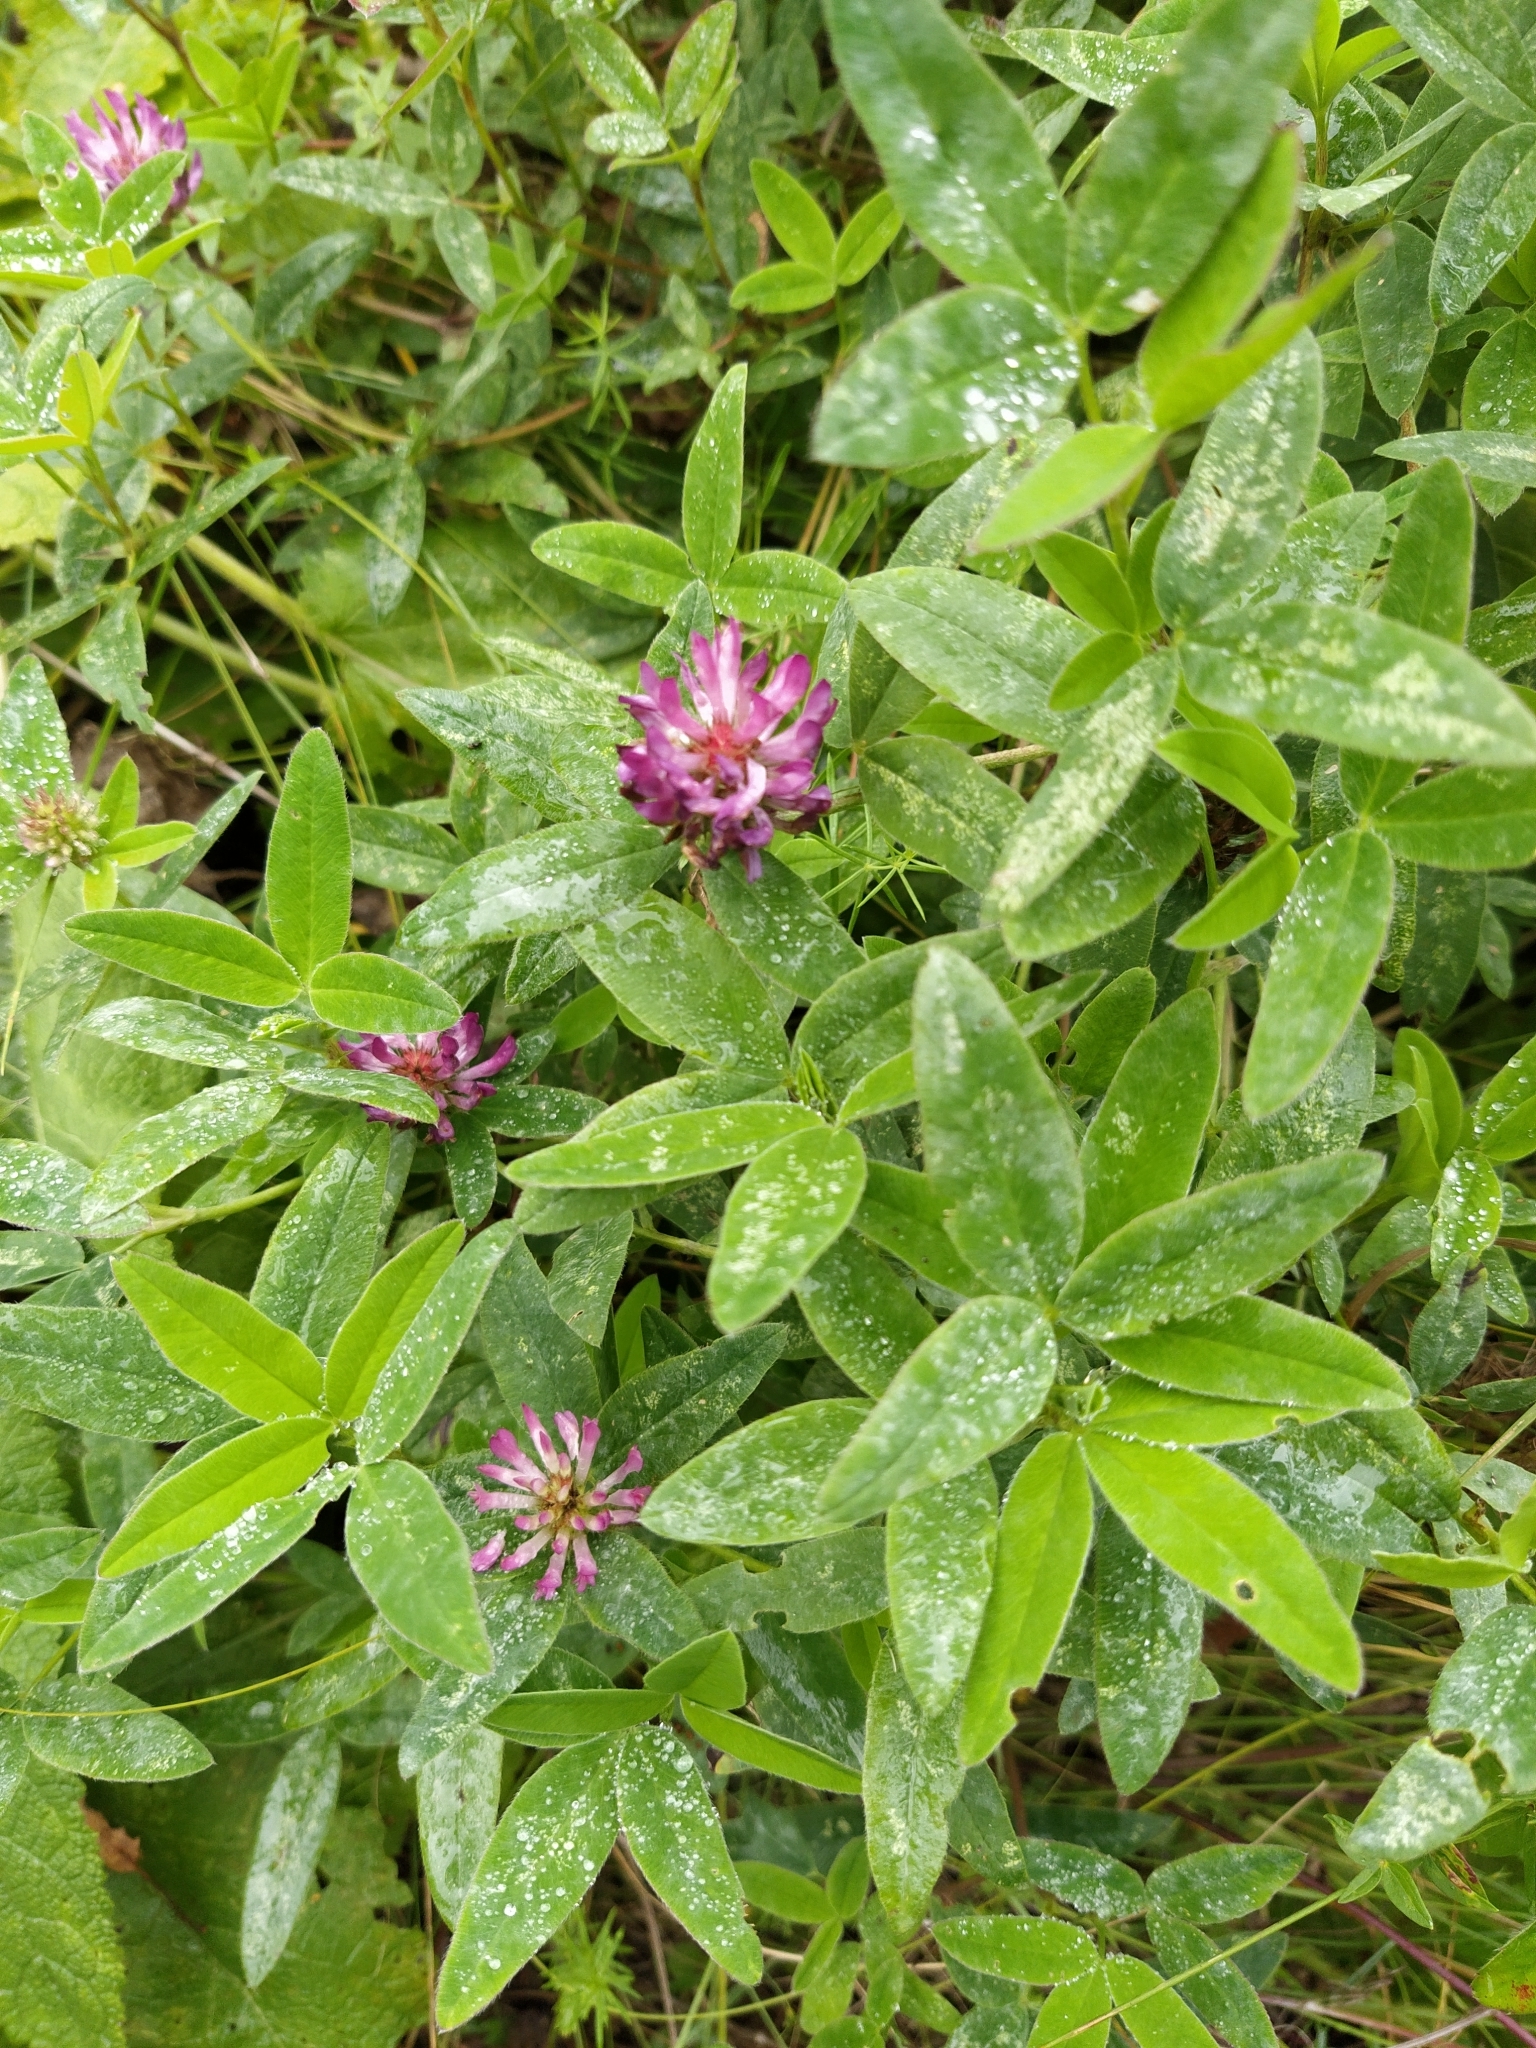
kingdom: Plantae
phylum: Tracheophyta
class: Magnoliopsida
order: Fabales
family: Fabaceae
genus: Trifolium
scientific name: Trifolium medium
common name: Zigzag clover
